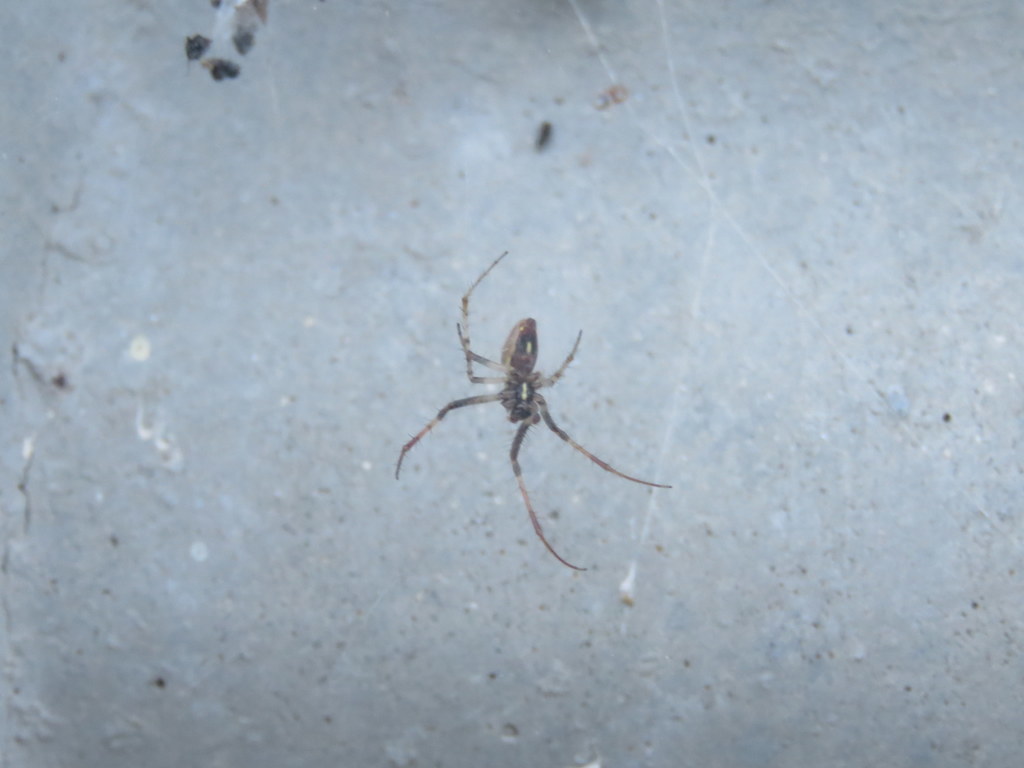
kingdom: Animalia
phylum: Arthropoda
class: Arachnida
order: Araneae
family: Araneidae
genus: Metepeira
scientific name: Metepeira
